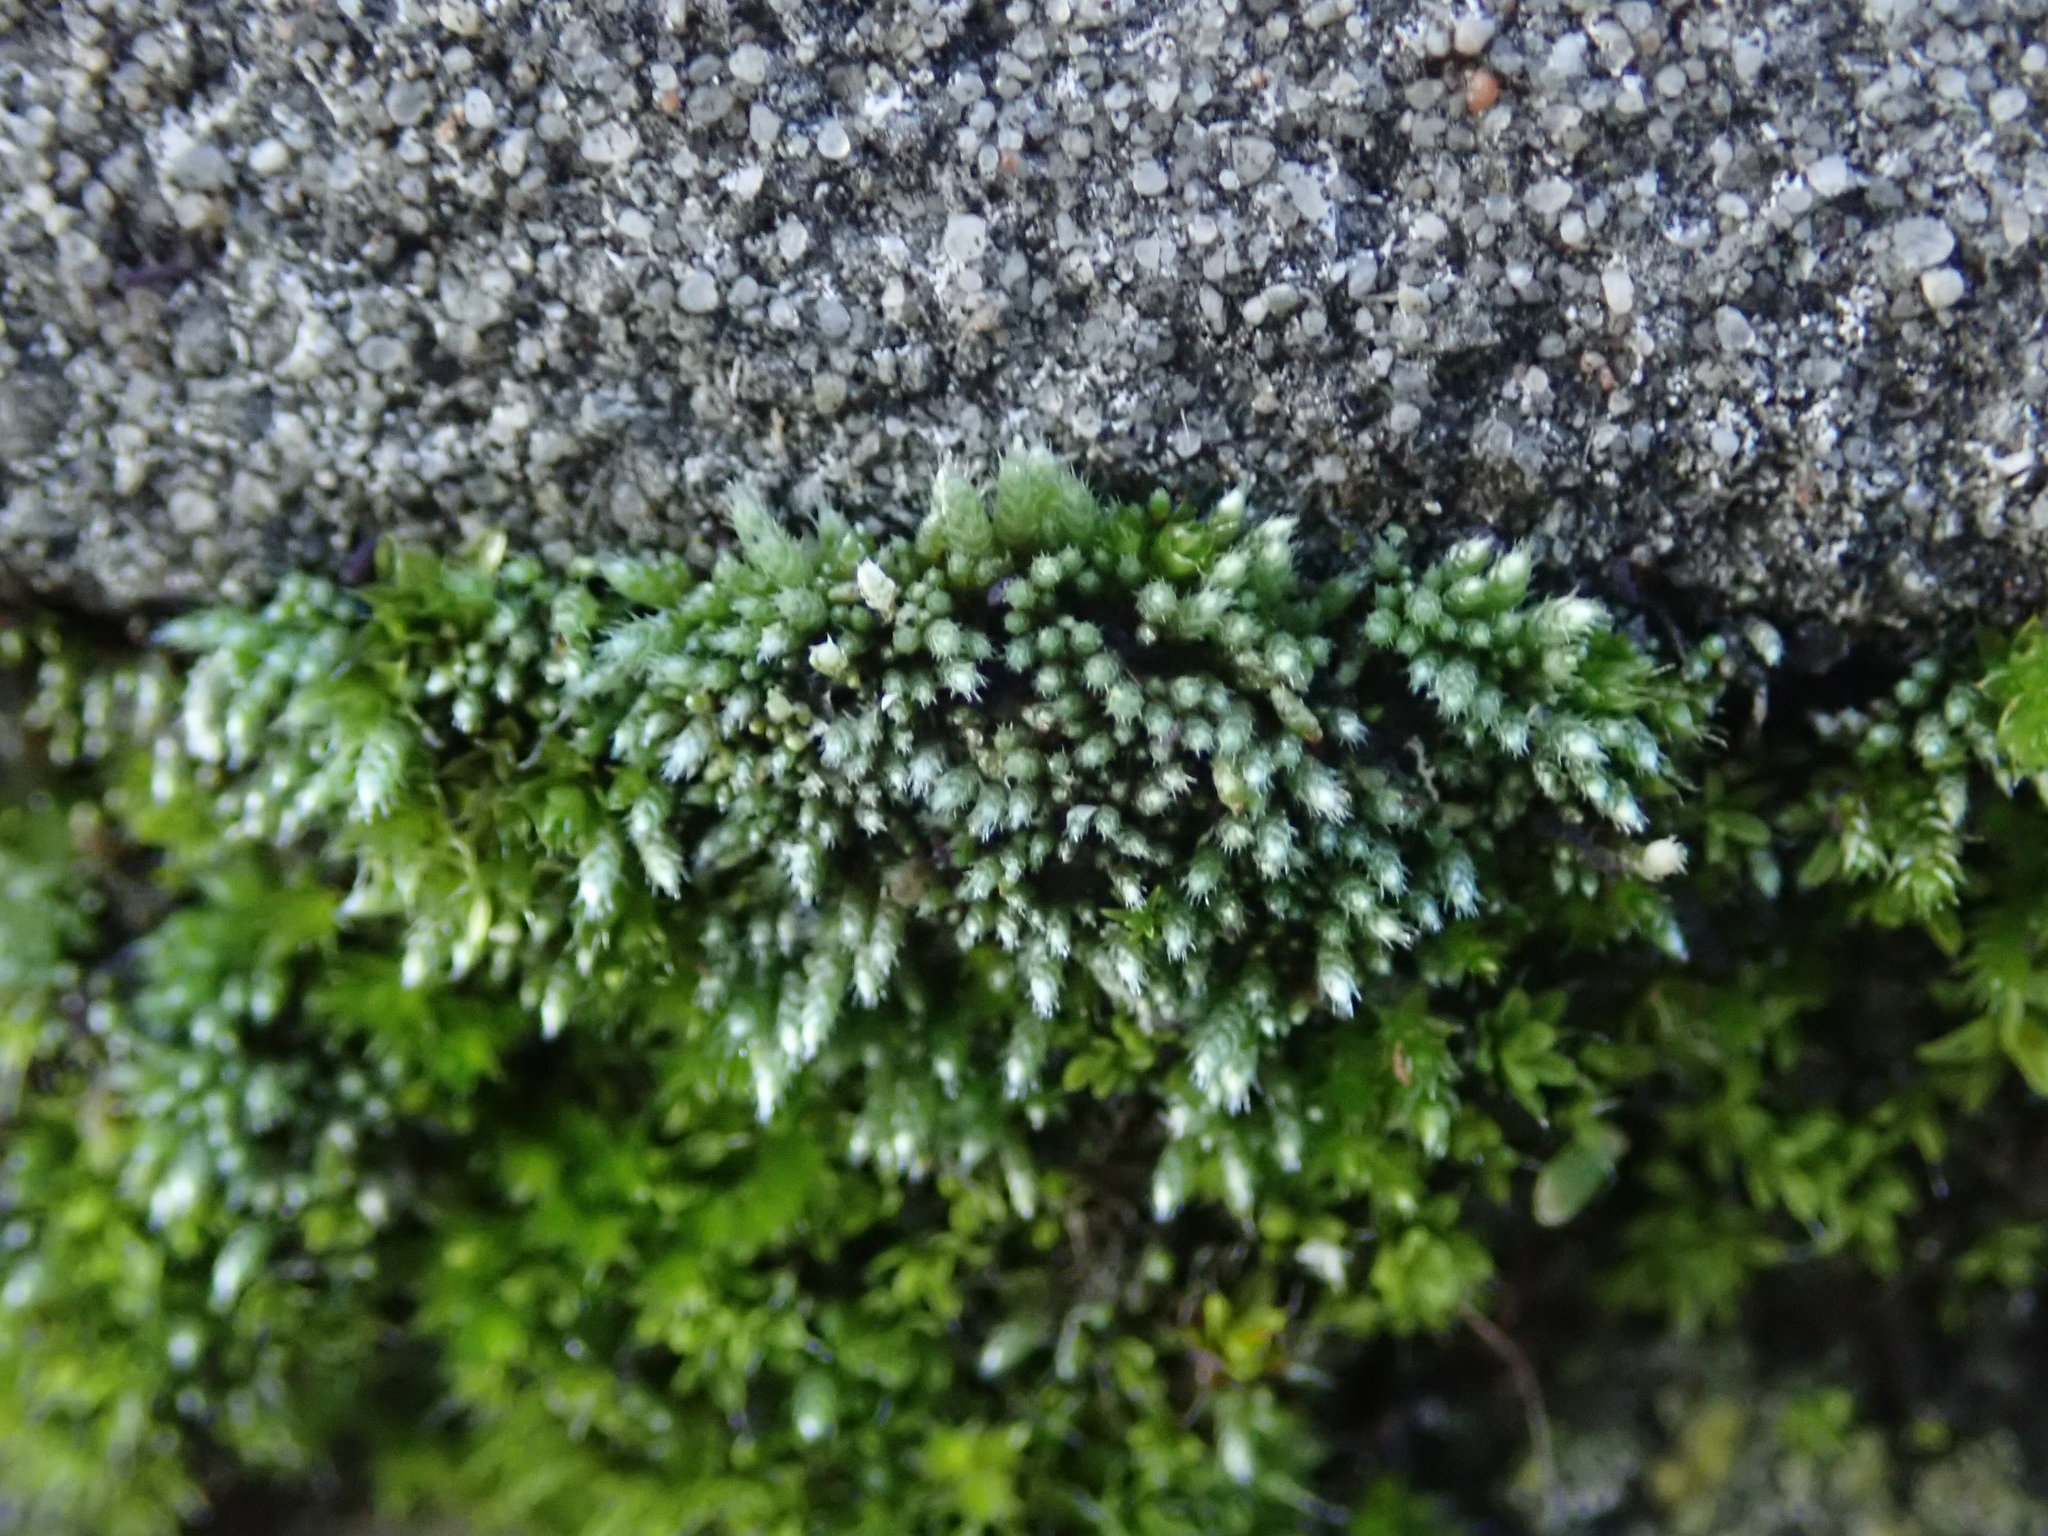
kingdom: Plantae
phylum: Bryophyta
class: Bryopsida
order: Bryales
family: Bryaceae
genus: Bryum
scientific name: Bryum argenteum
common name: Silver-moss
